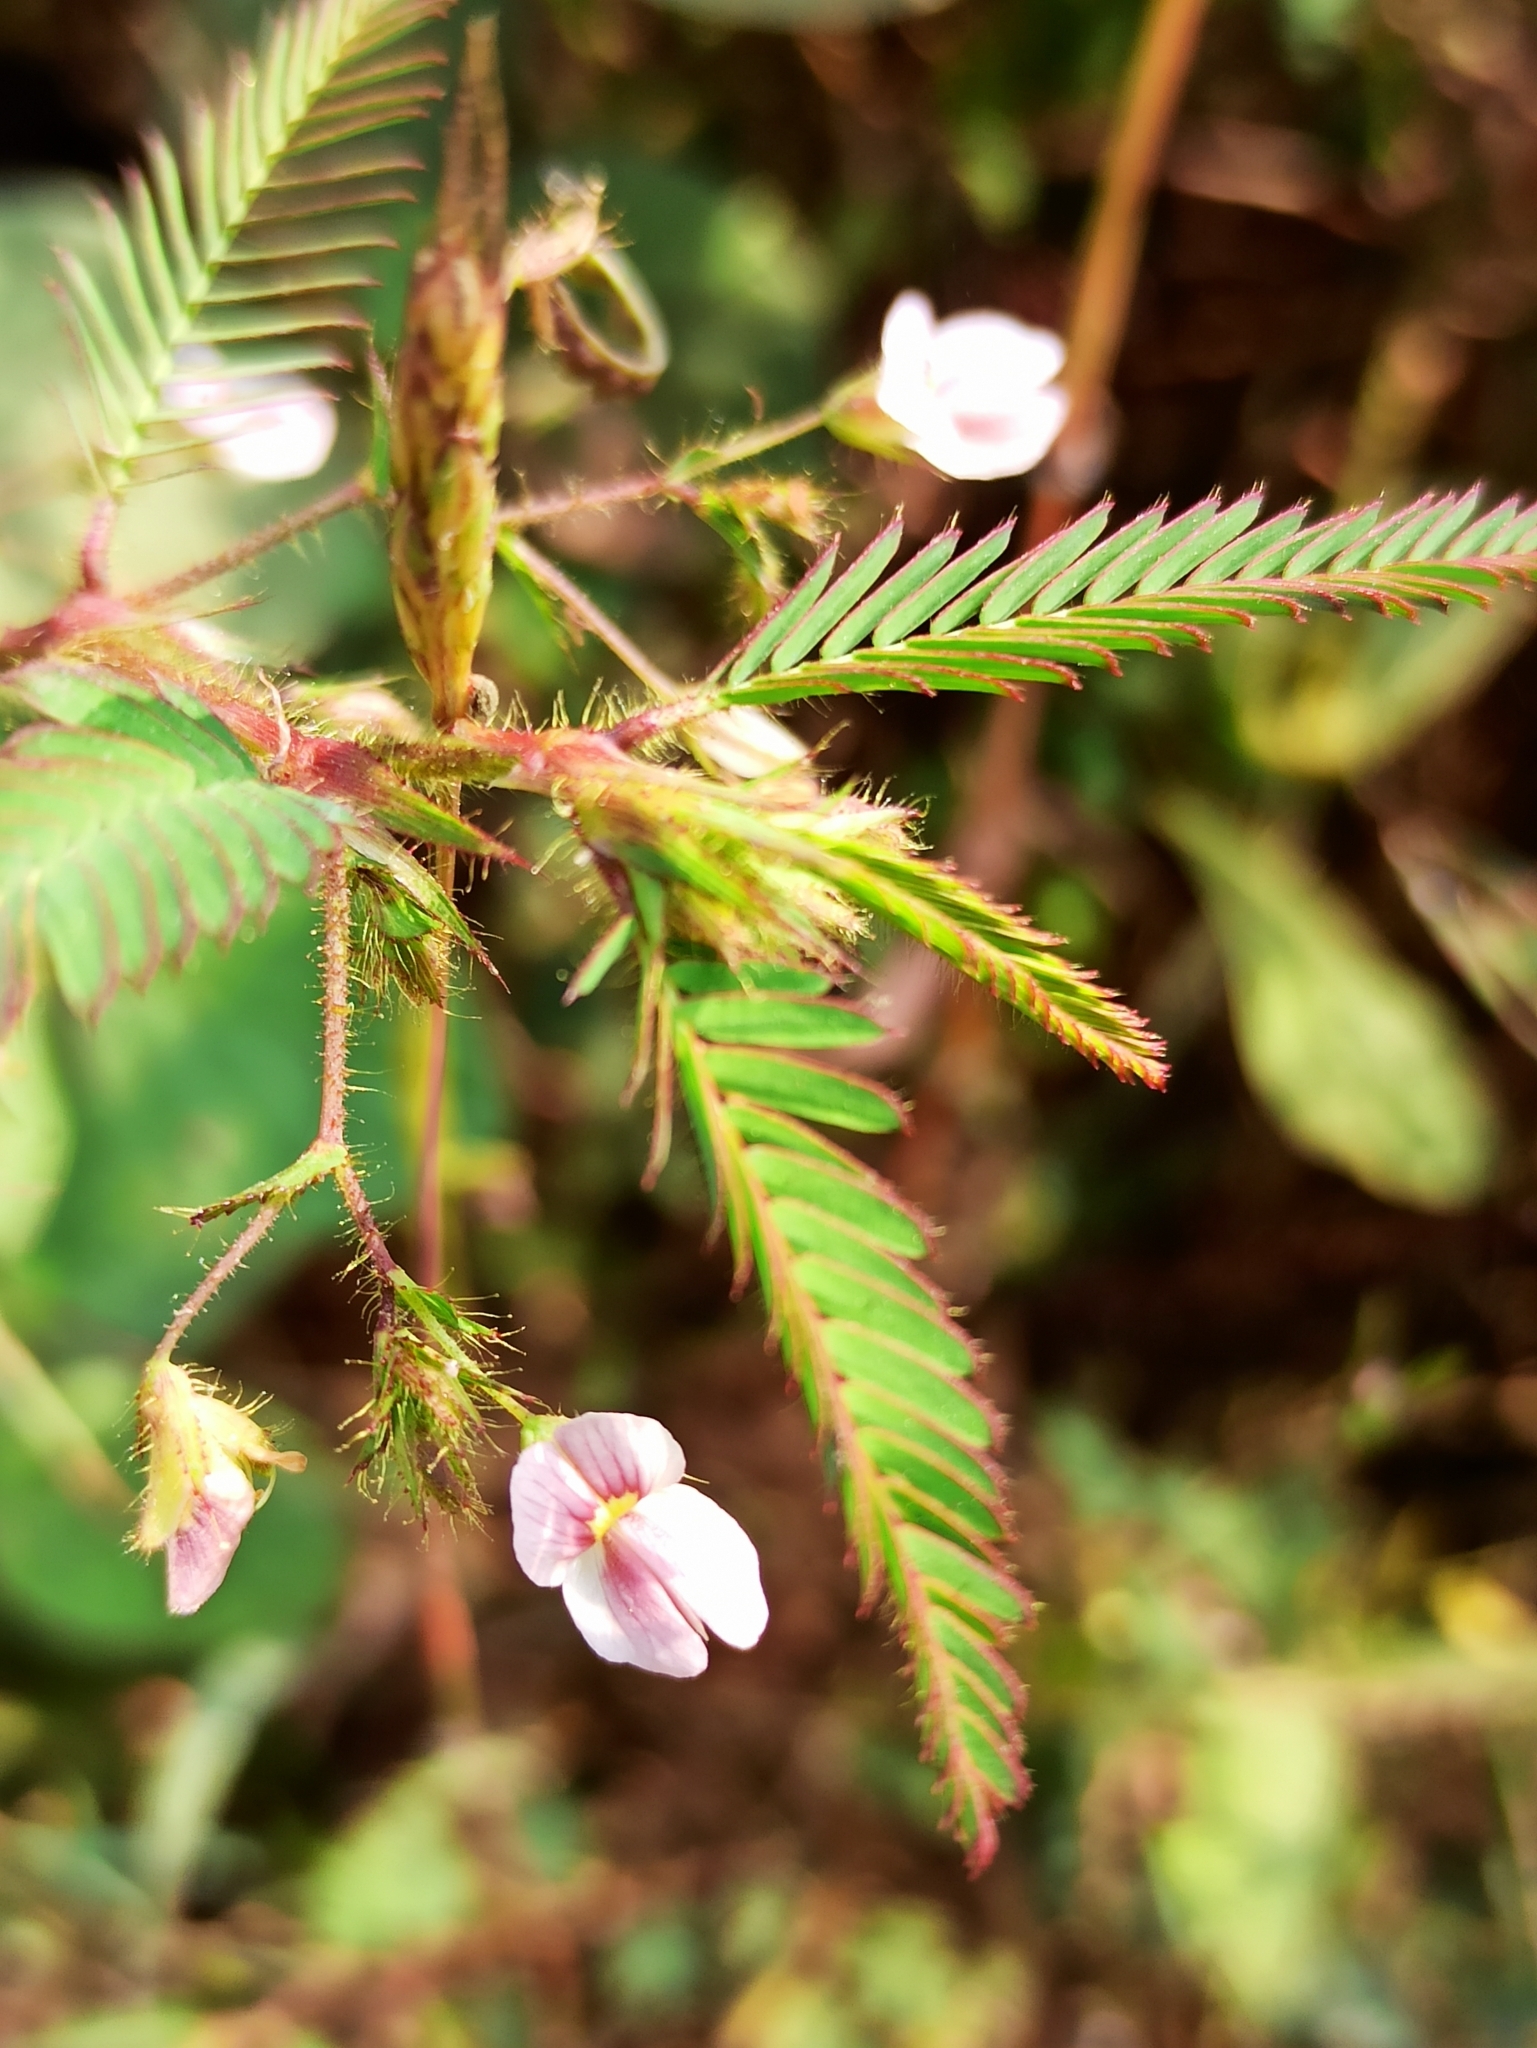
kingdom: Plantae
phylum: Tracheophyta
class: Magnoliopsida
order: Fabales
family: Fabaceae
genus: Aeschynomene
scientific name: Aeschynomene americana
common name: Joint-vetch
